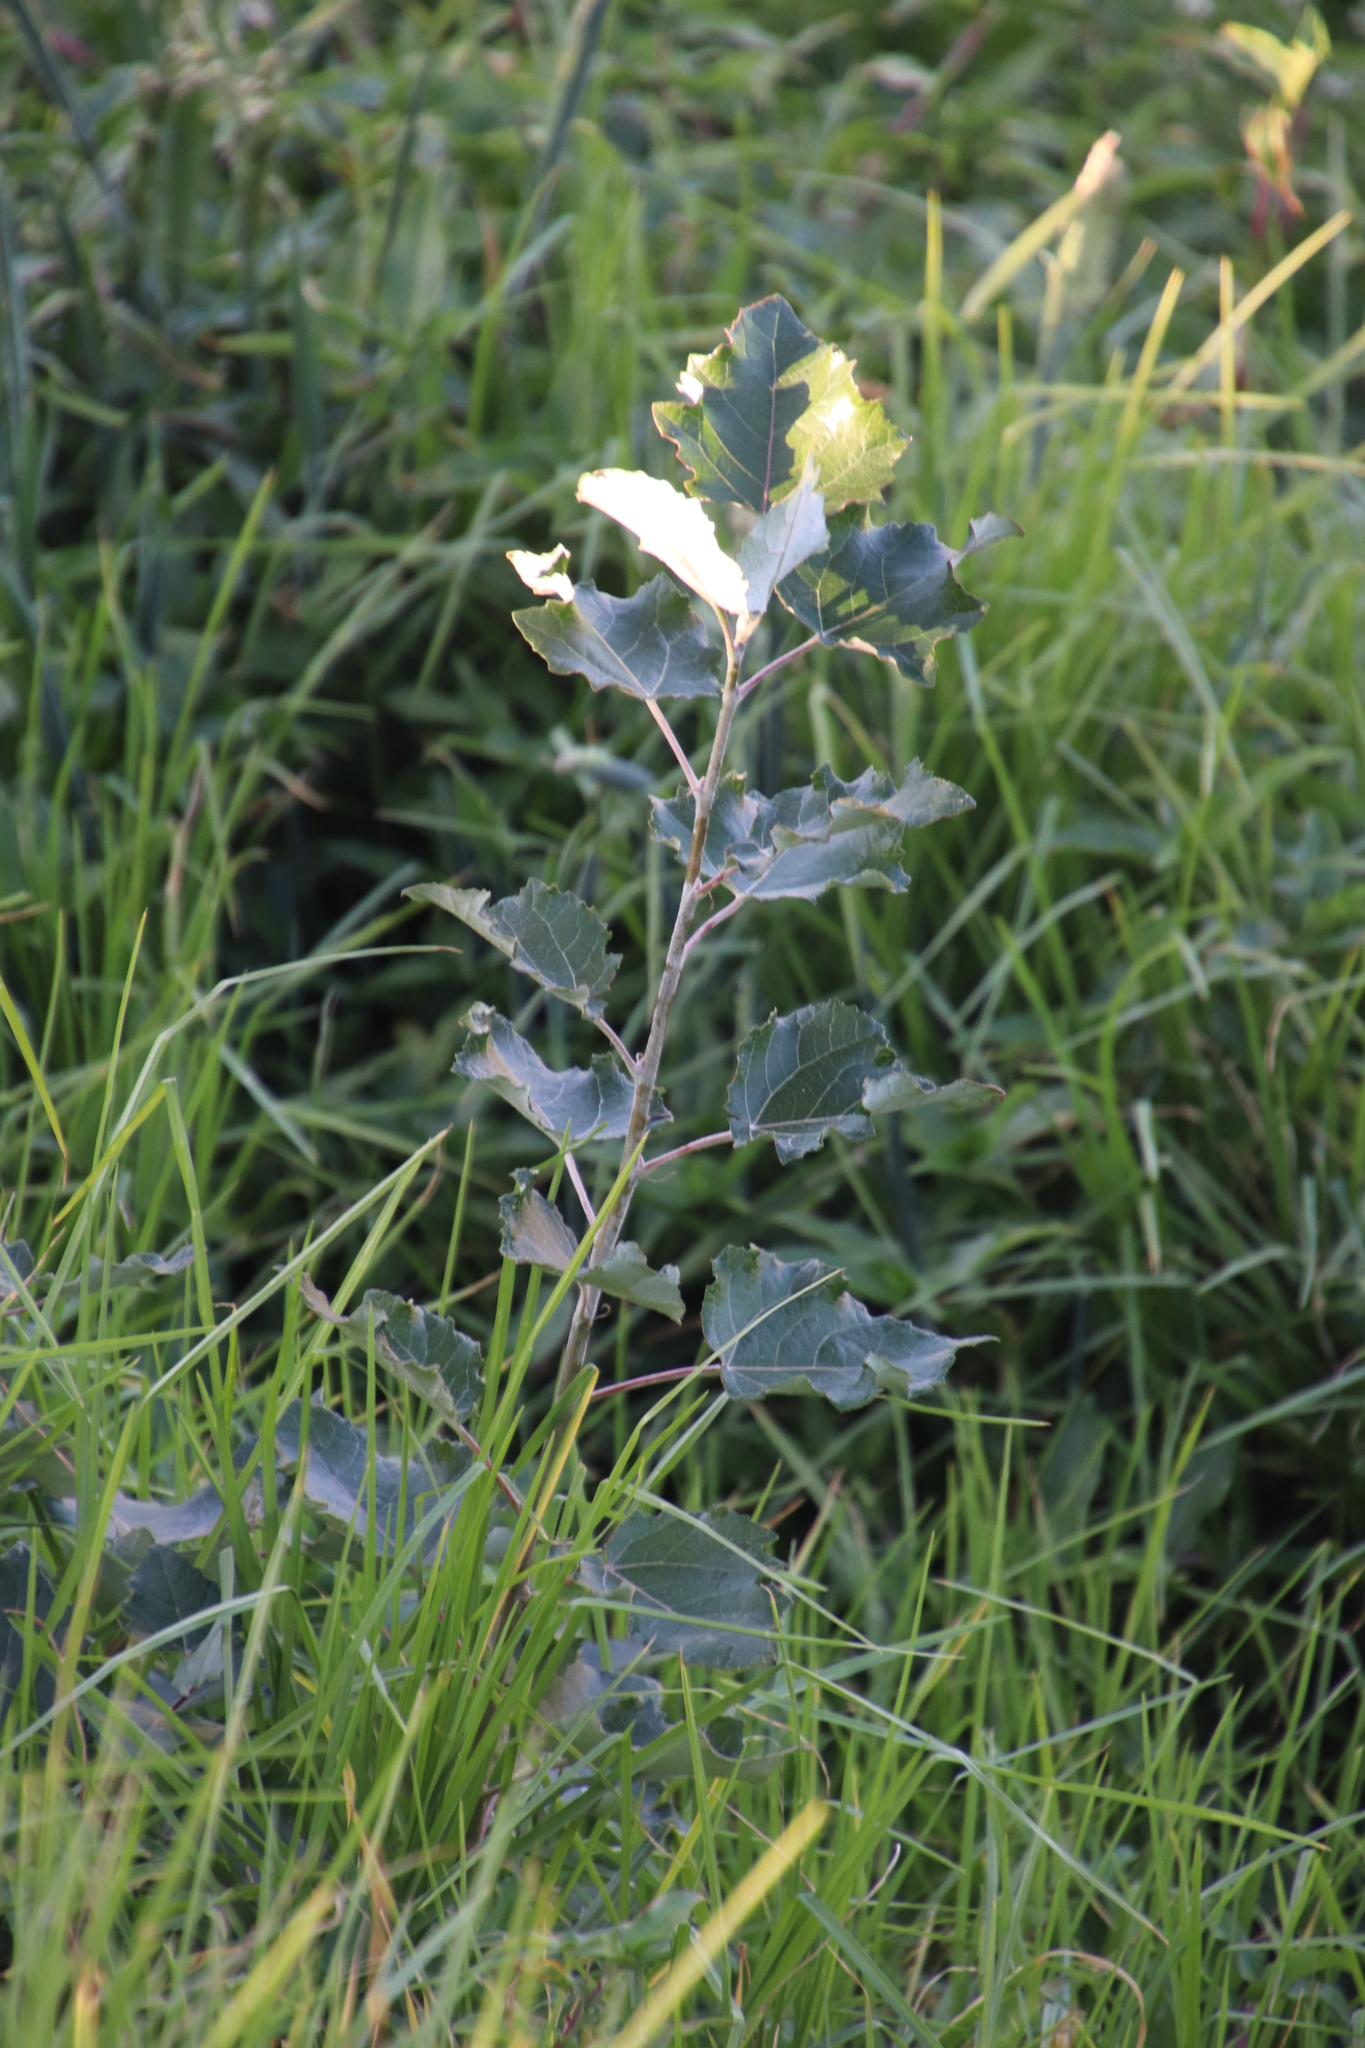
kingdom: Plantae
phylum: Tracheophyta
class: Magnoliopsida
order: Malpighiales
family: Salicaceae
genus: Populus
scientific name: Populus canescens
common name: Gray poplar
